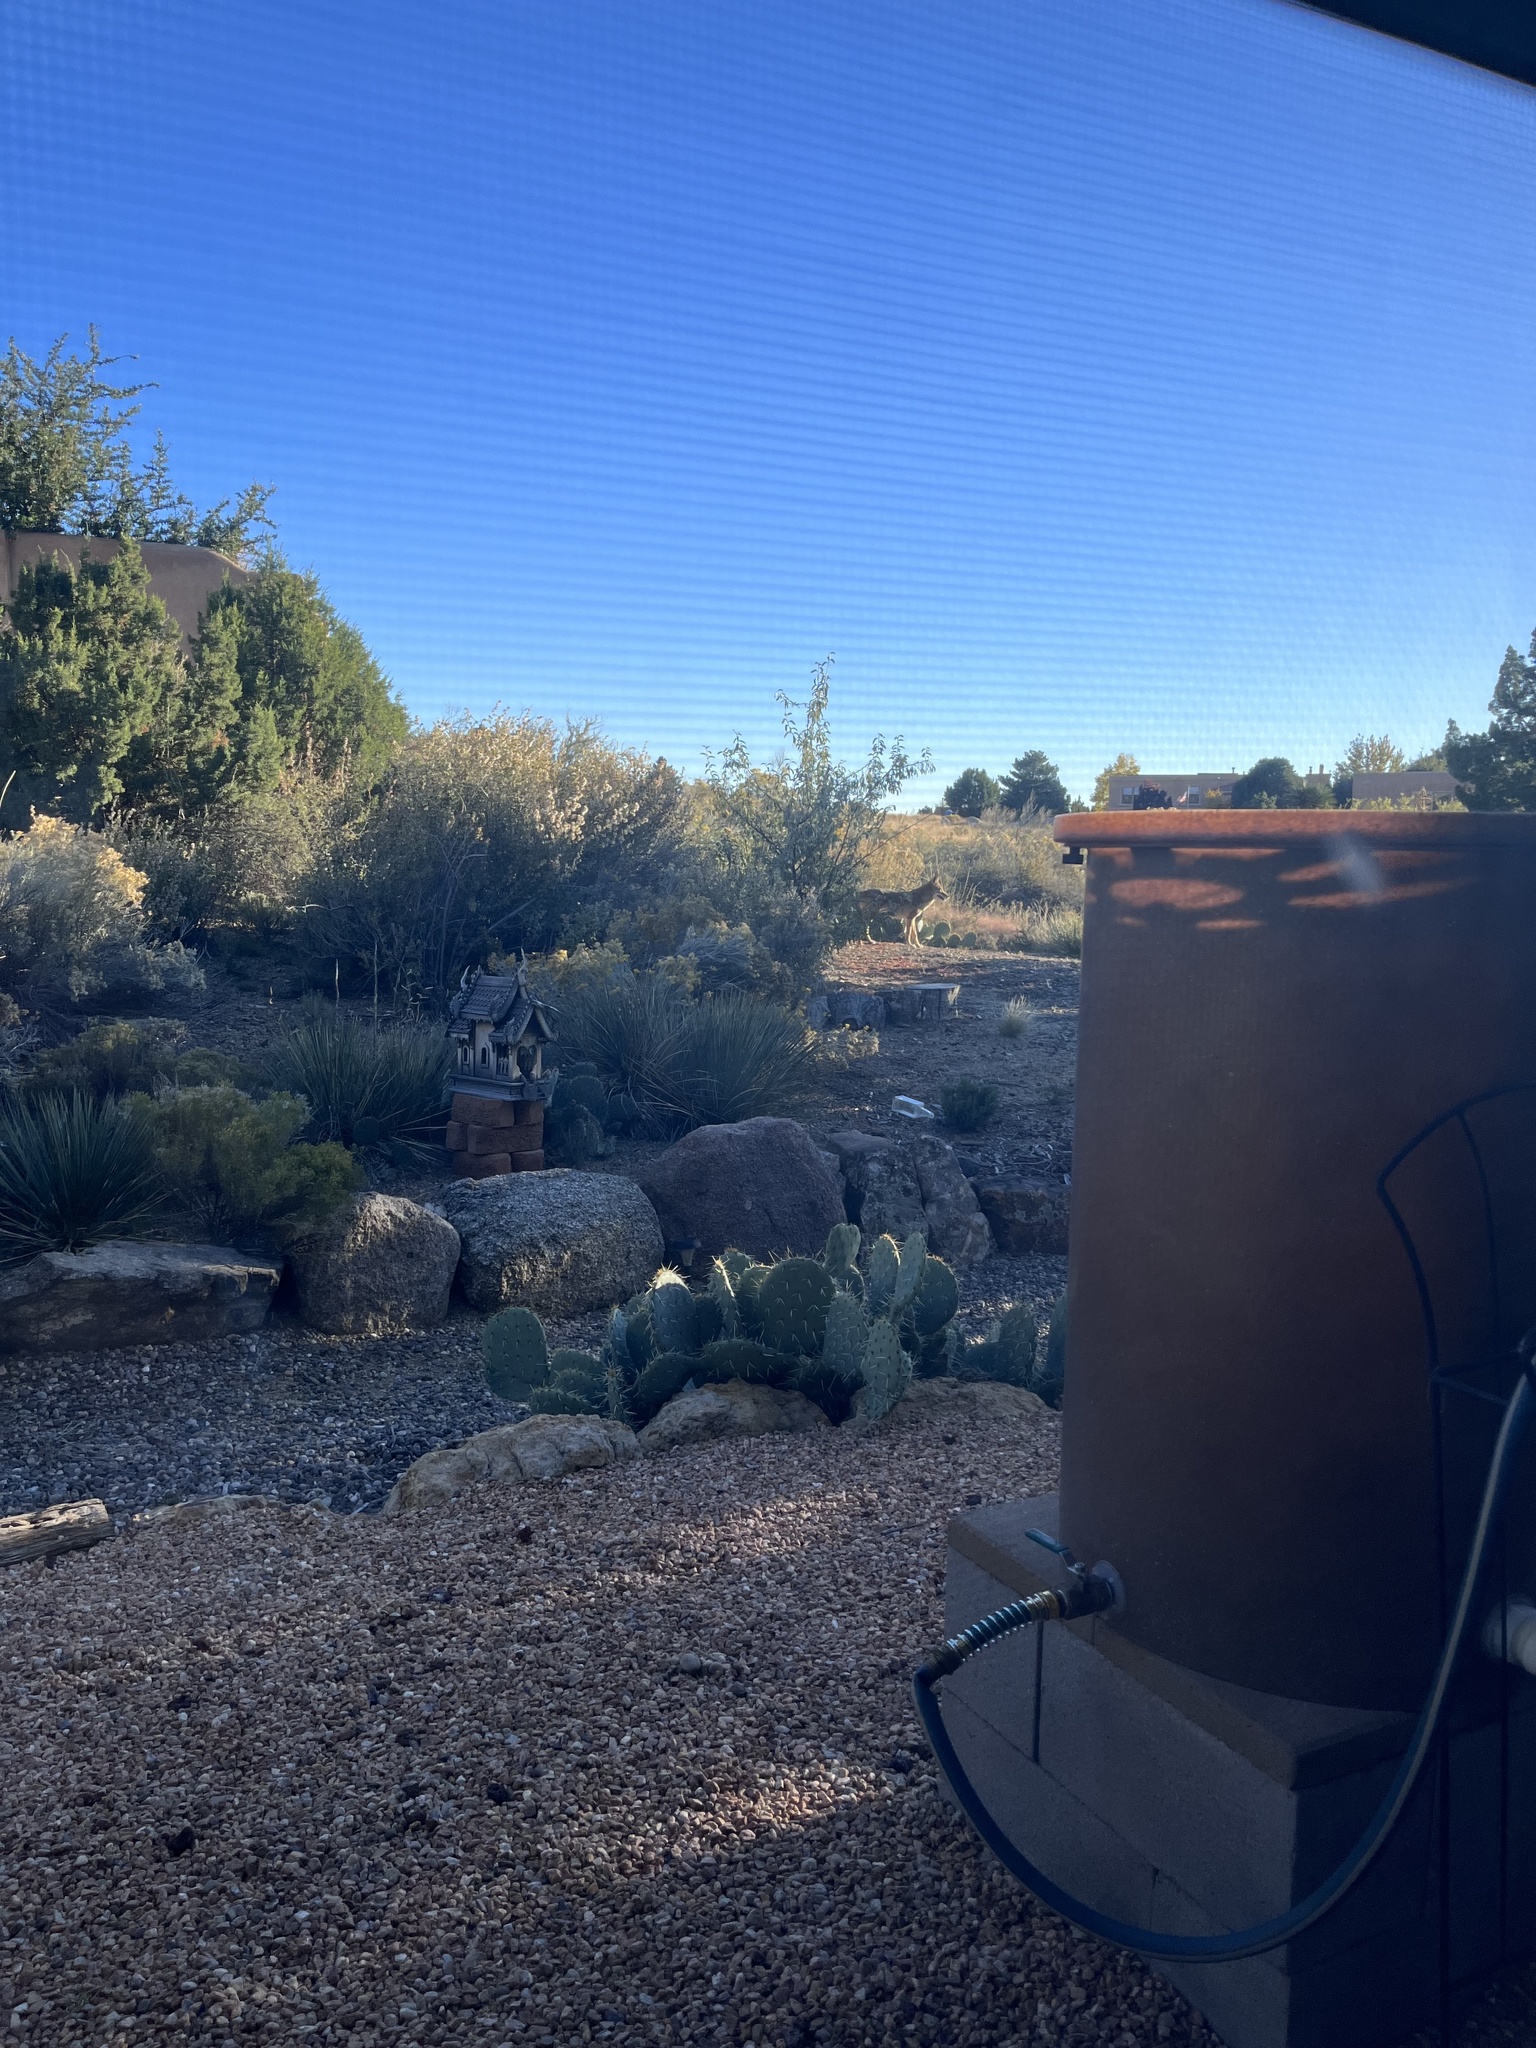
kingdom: Animalia
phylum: Chordata
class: Mammalia
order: Carnivora
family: Canidae
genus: Canis
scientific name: Canis latrans
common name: Coyote
